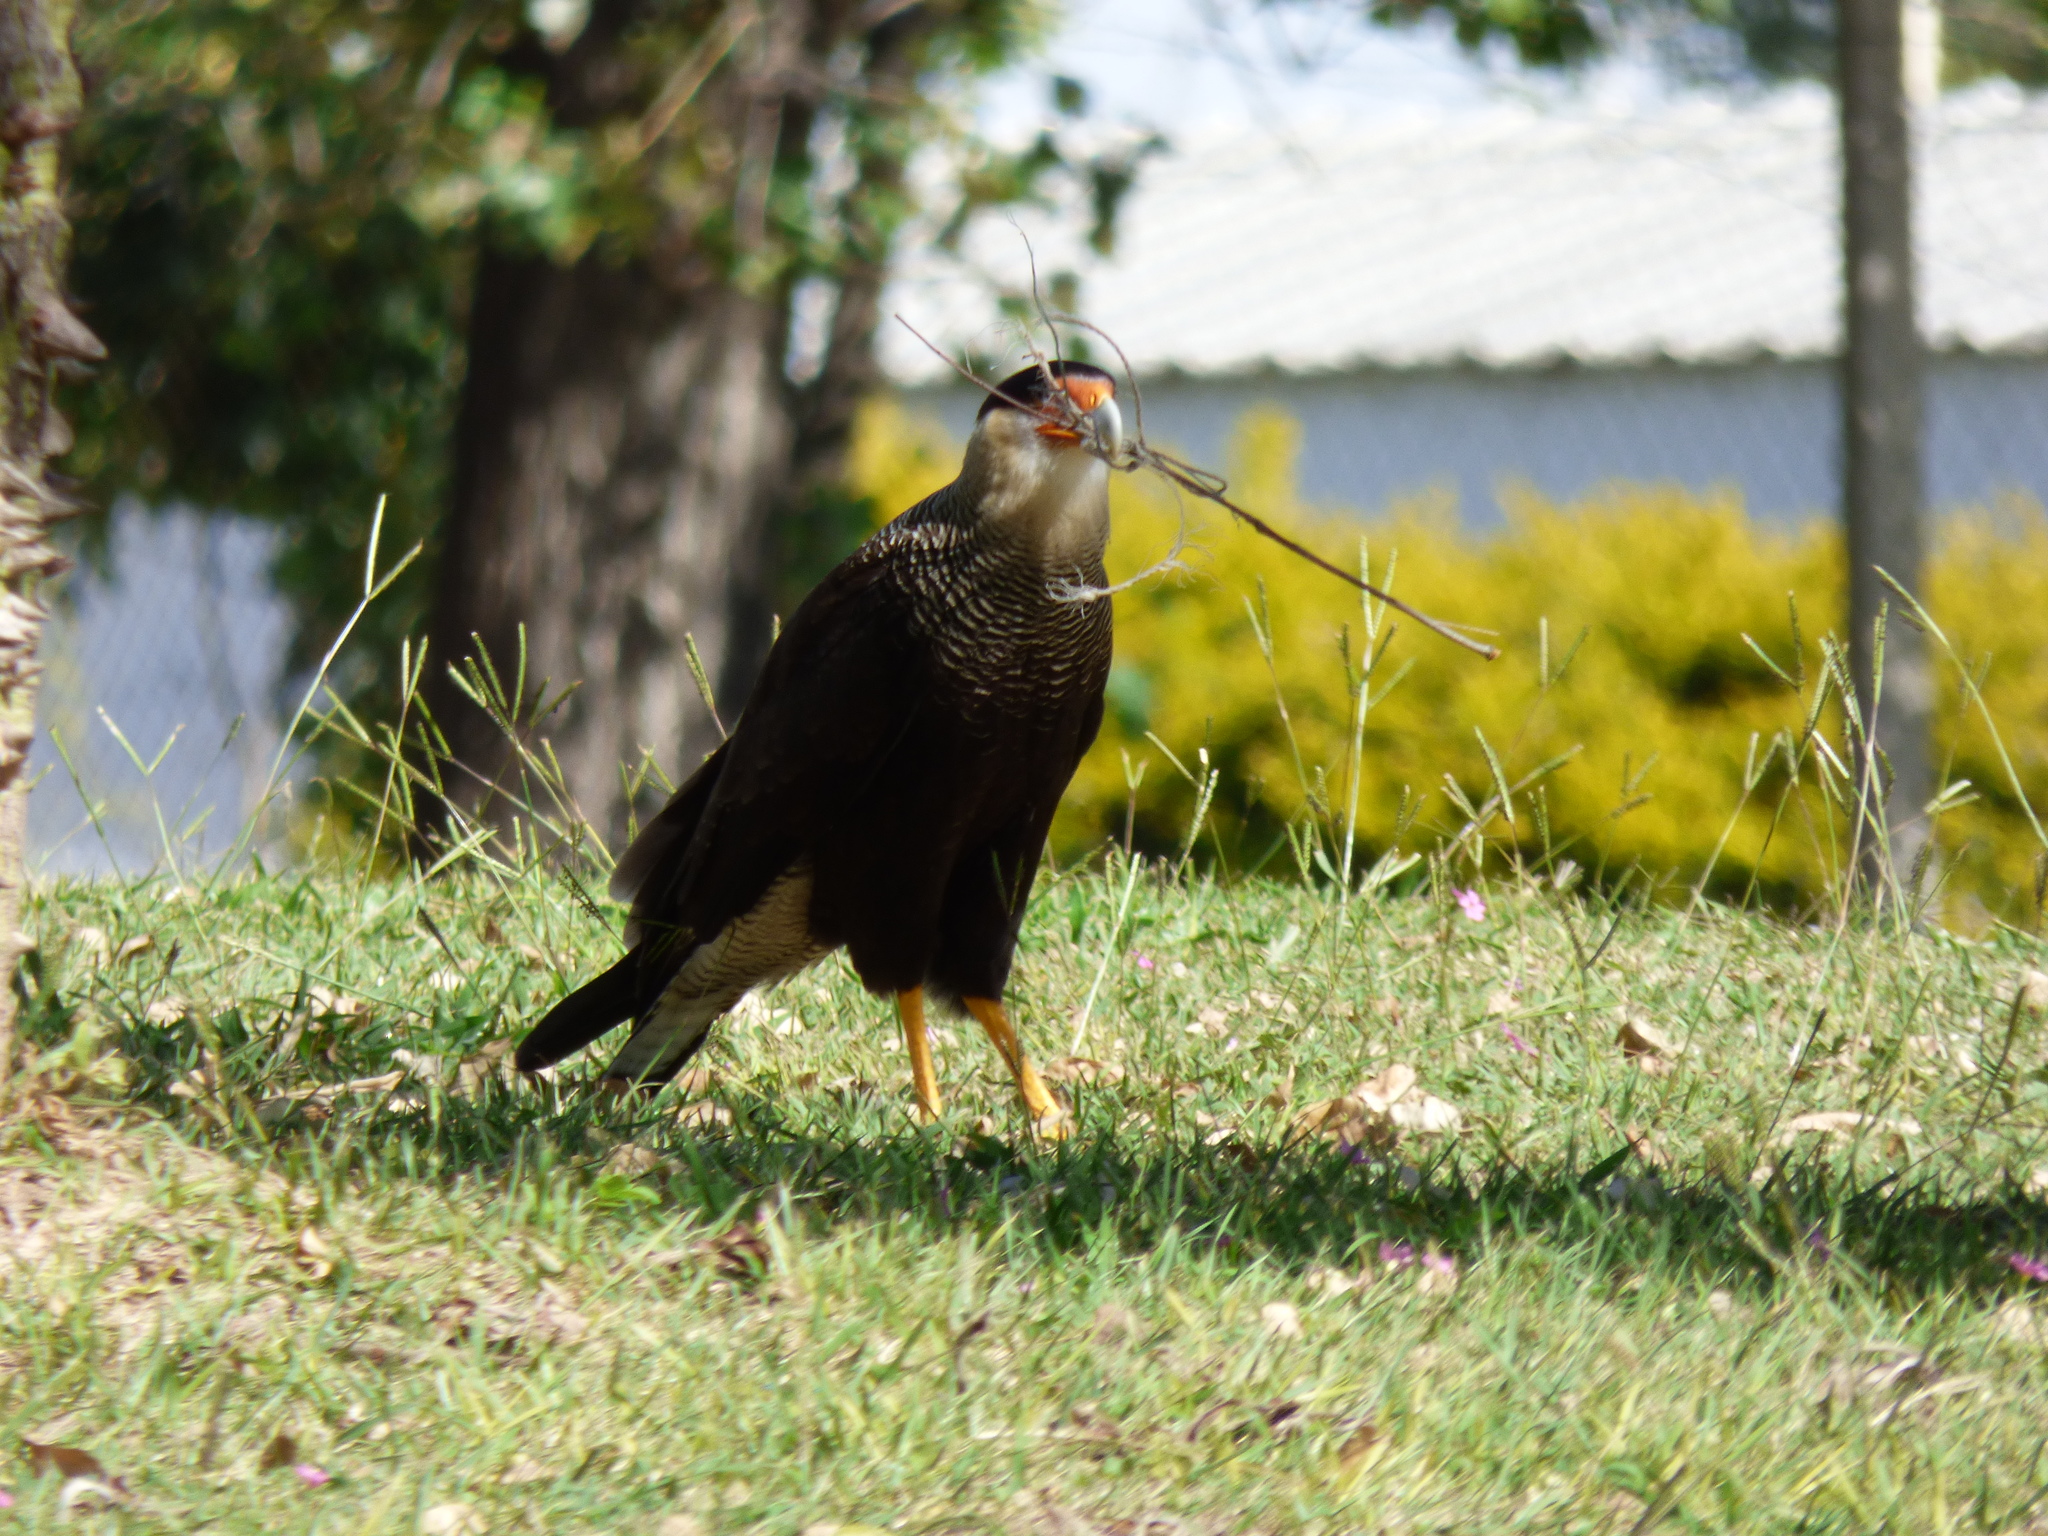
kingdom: Animalia
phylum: Chordata
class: Aves
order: Falconiformes
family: Falconidae
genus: Caracara
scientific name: Caracara plancus
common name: Southern caracara
